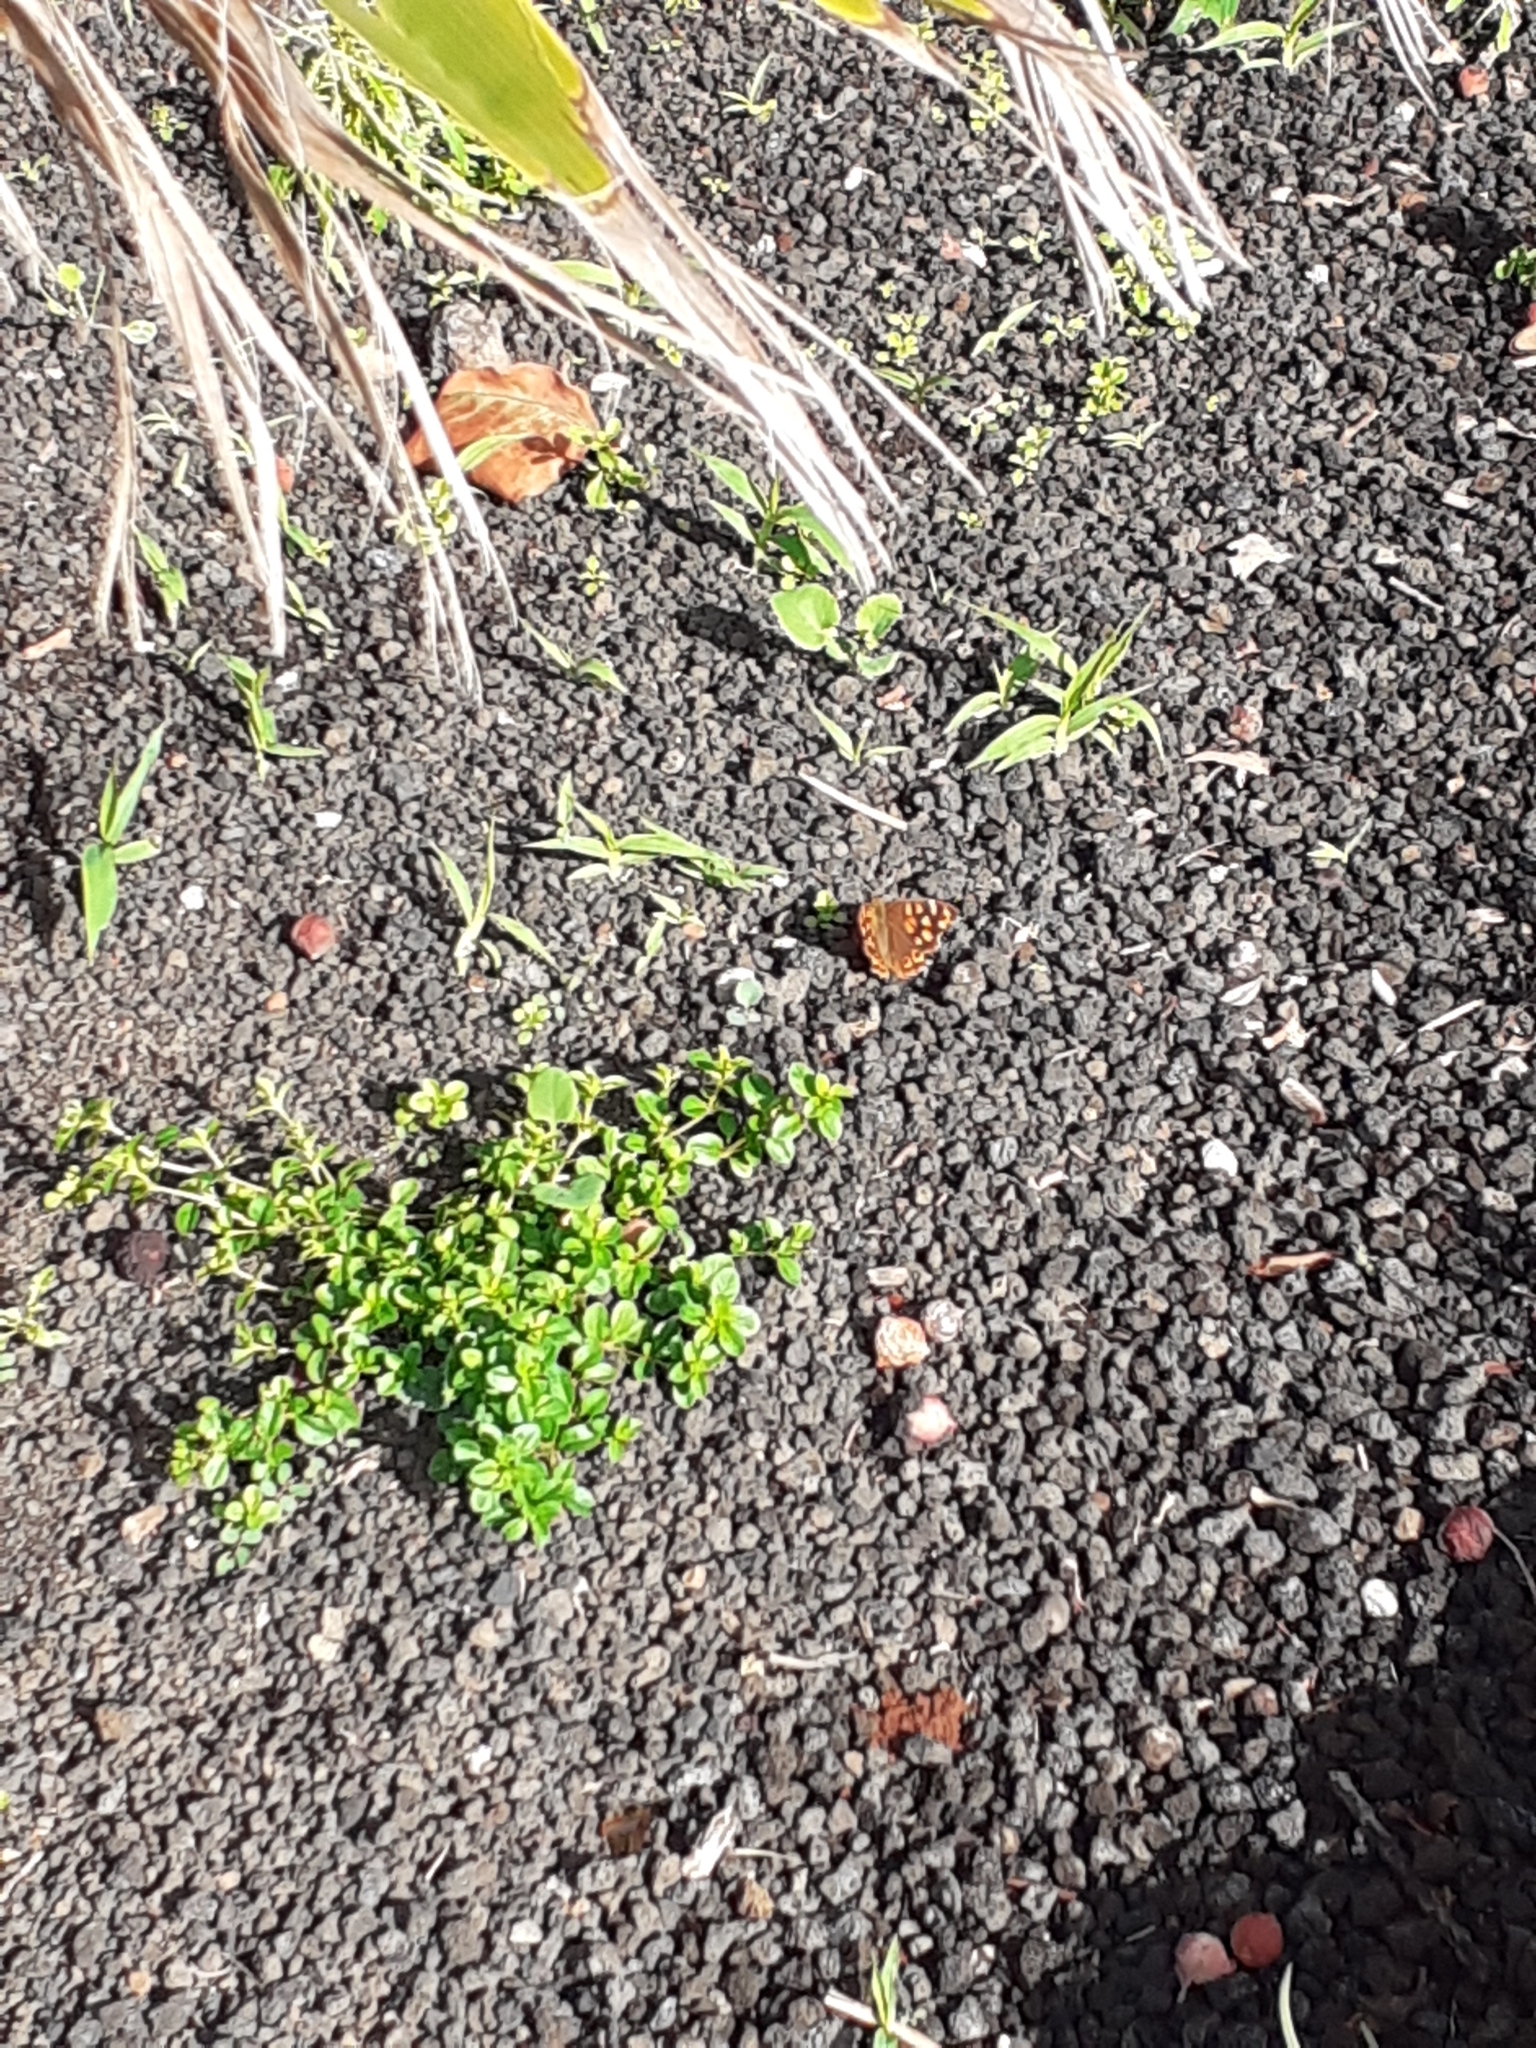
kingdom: Animalia
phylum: Arthropoda
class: Insecta
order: Lepidoptera
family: Nymphalidae
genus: Pararge
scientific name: Pararge aegeria
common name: Speckled wood
